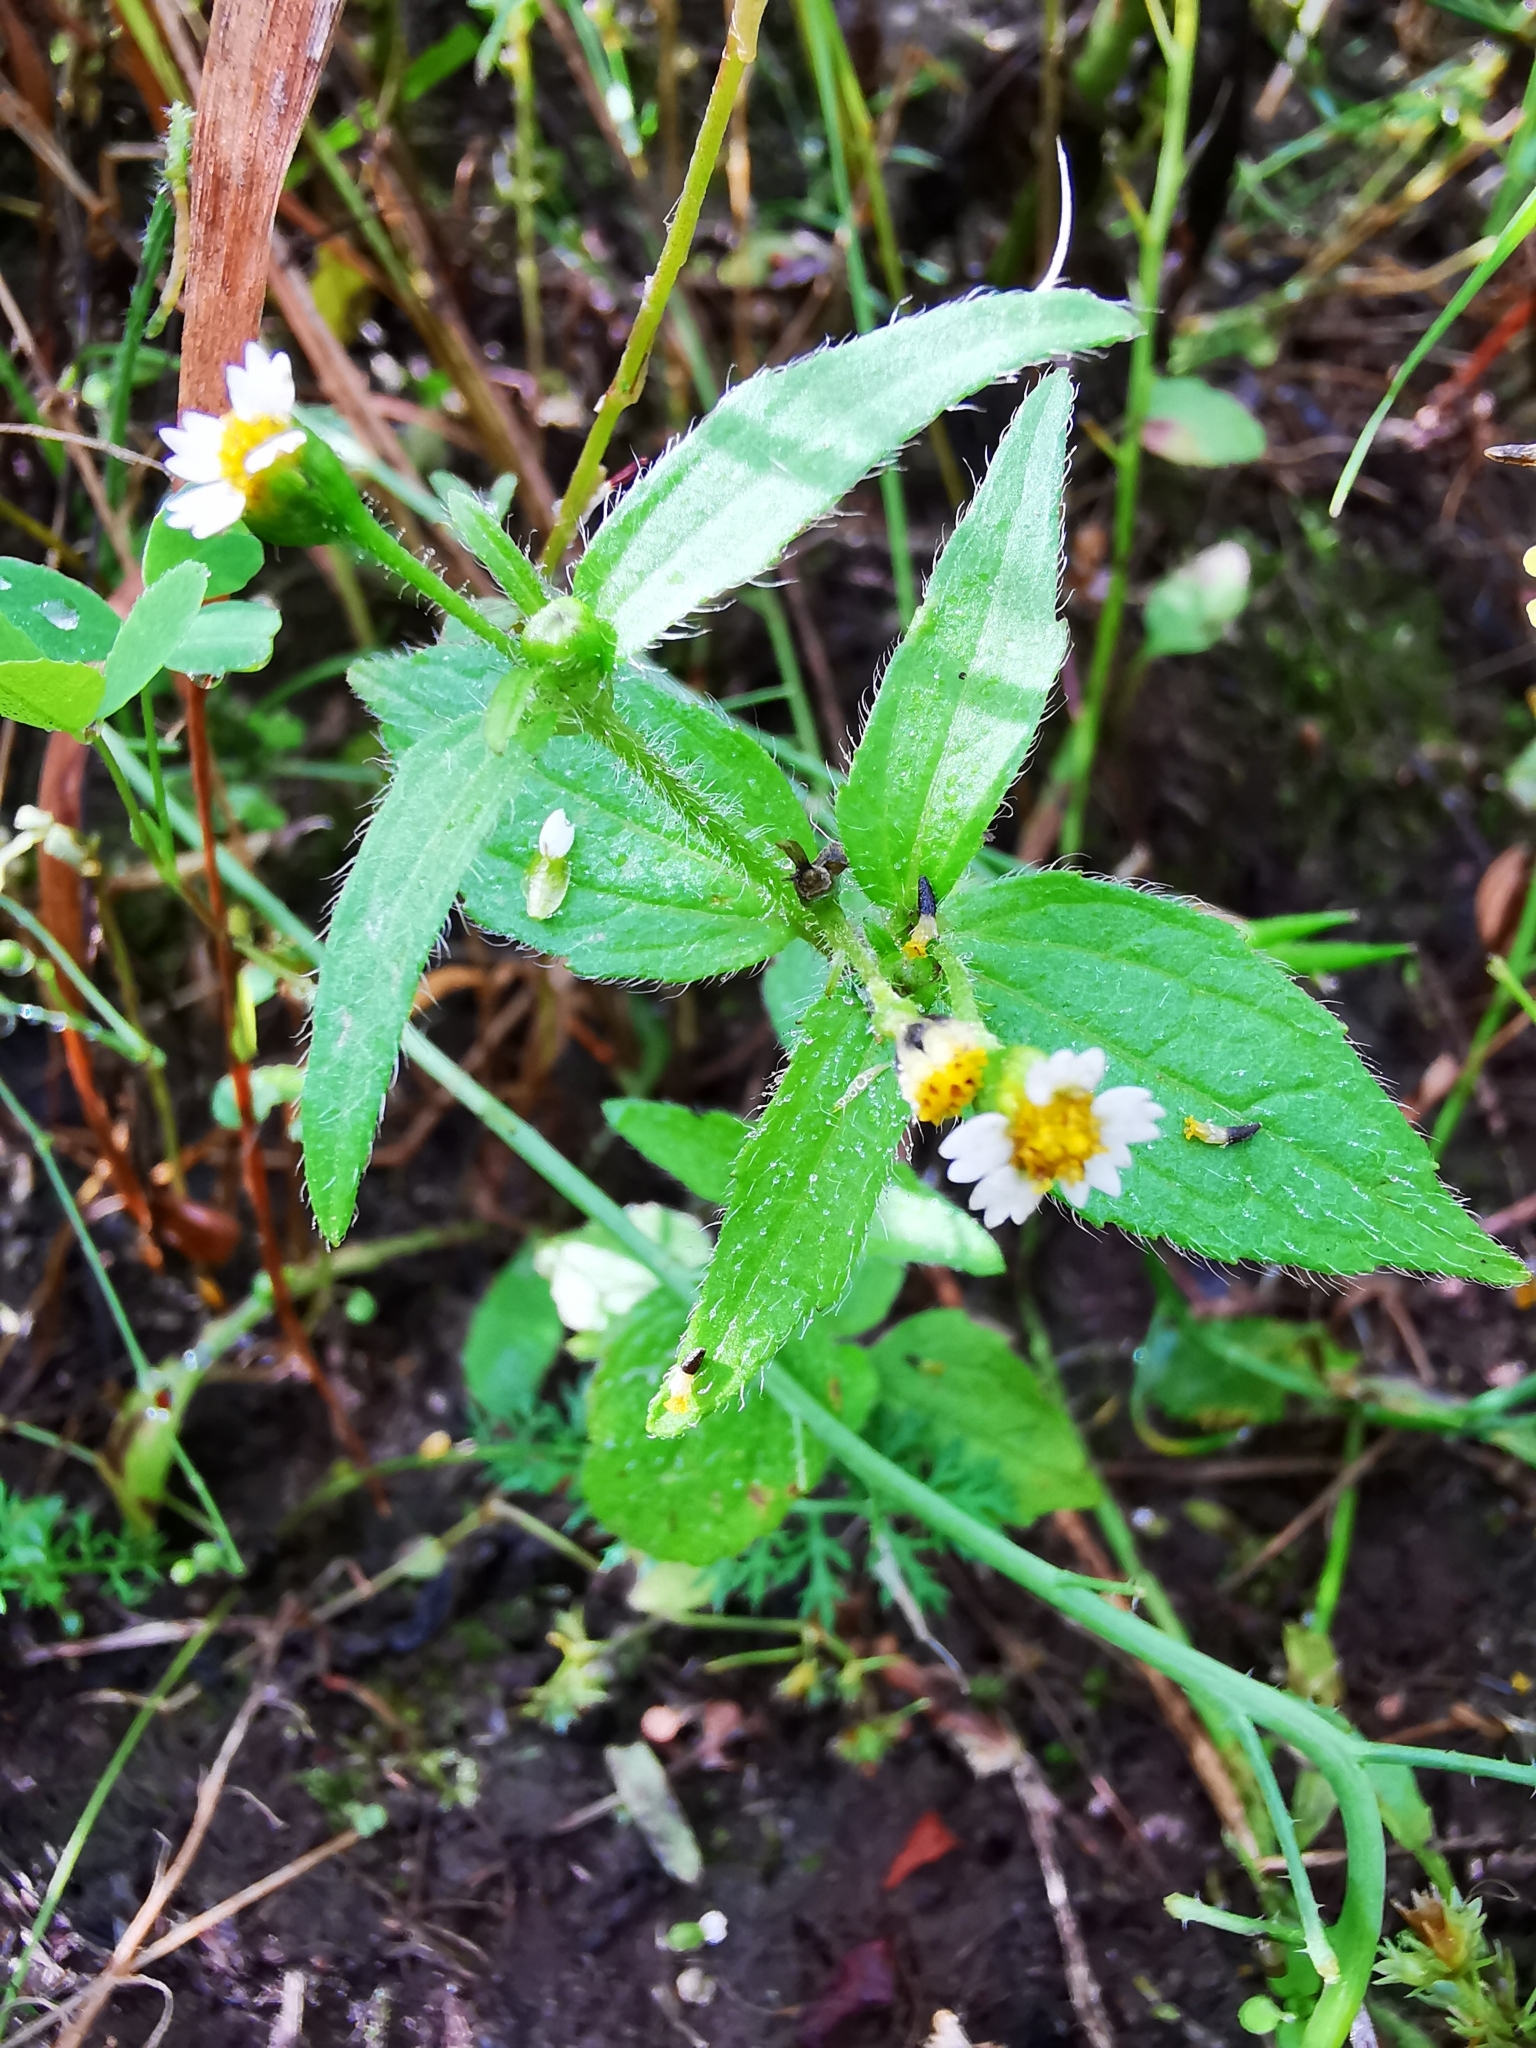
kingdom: Plantae
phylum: Tracheophyta
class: Magnoliopsida
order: Asterales
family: Asteraceae
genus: Galinsoga
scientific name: Galinsoga quadriradiata
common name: Shaggy soldier
